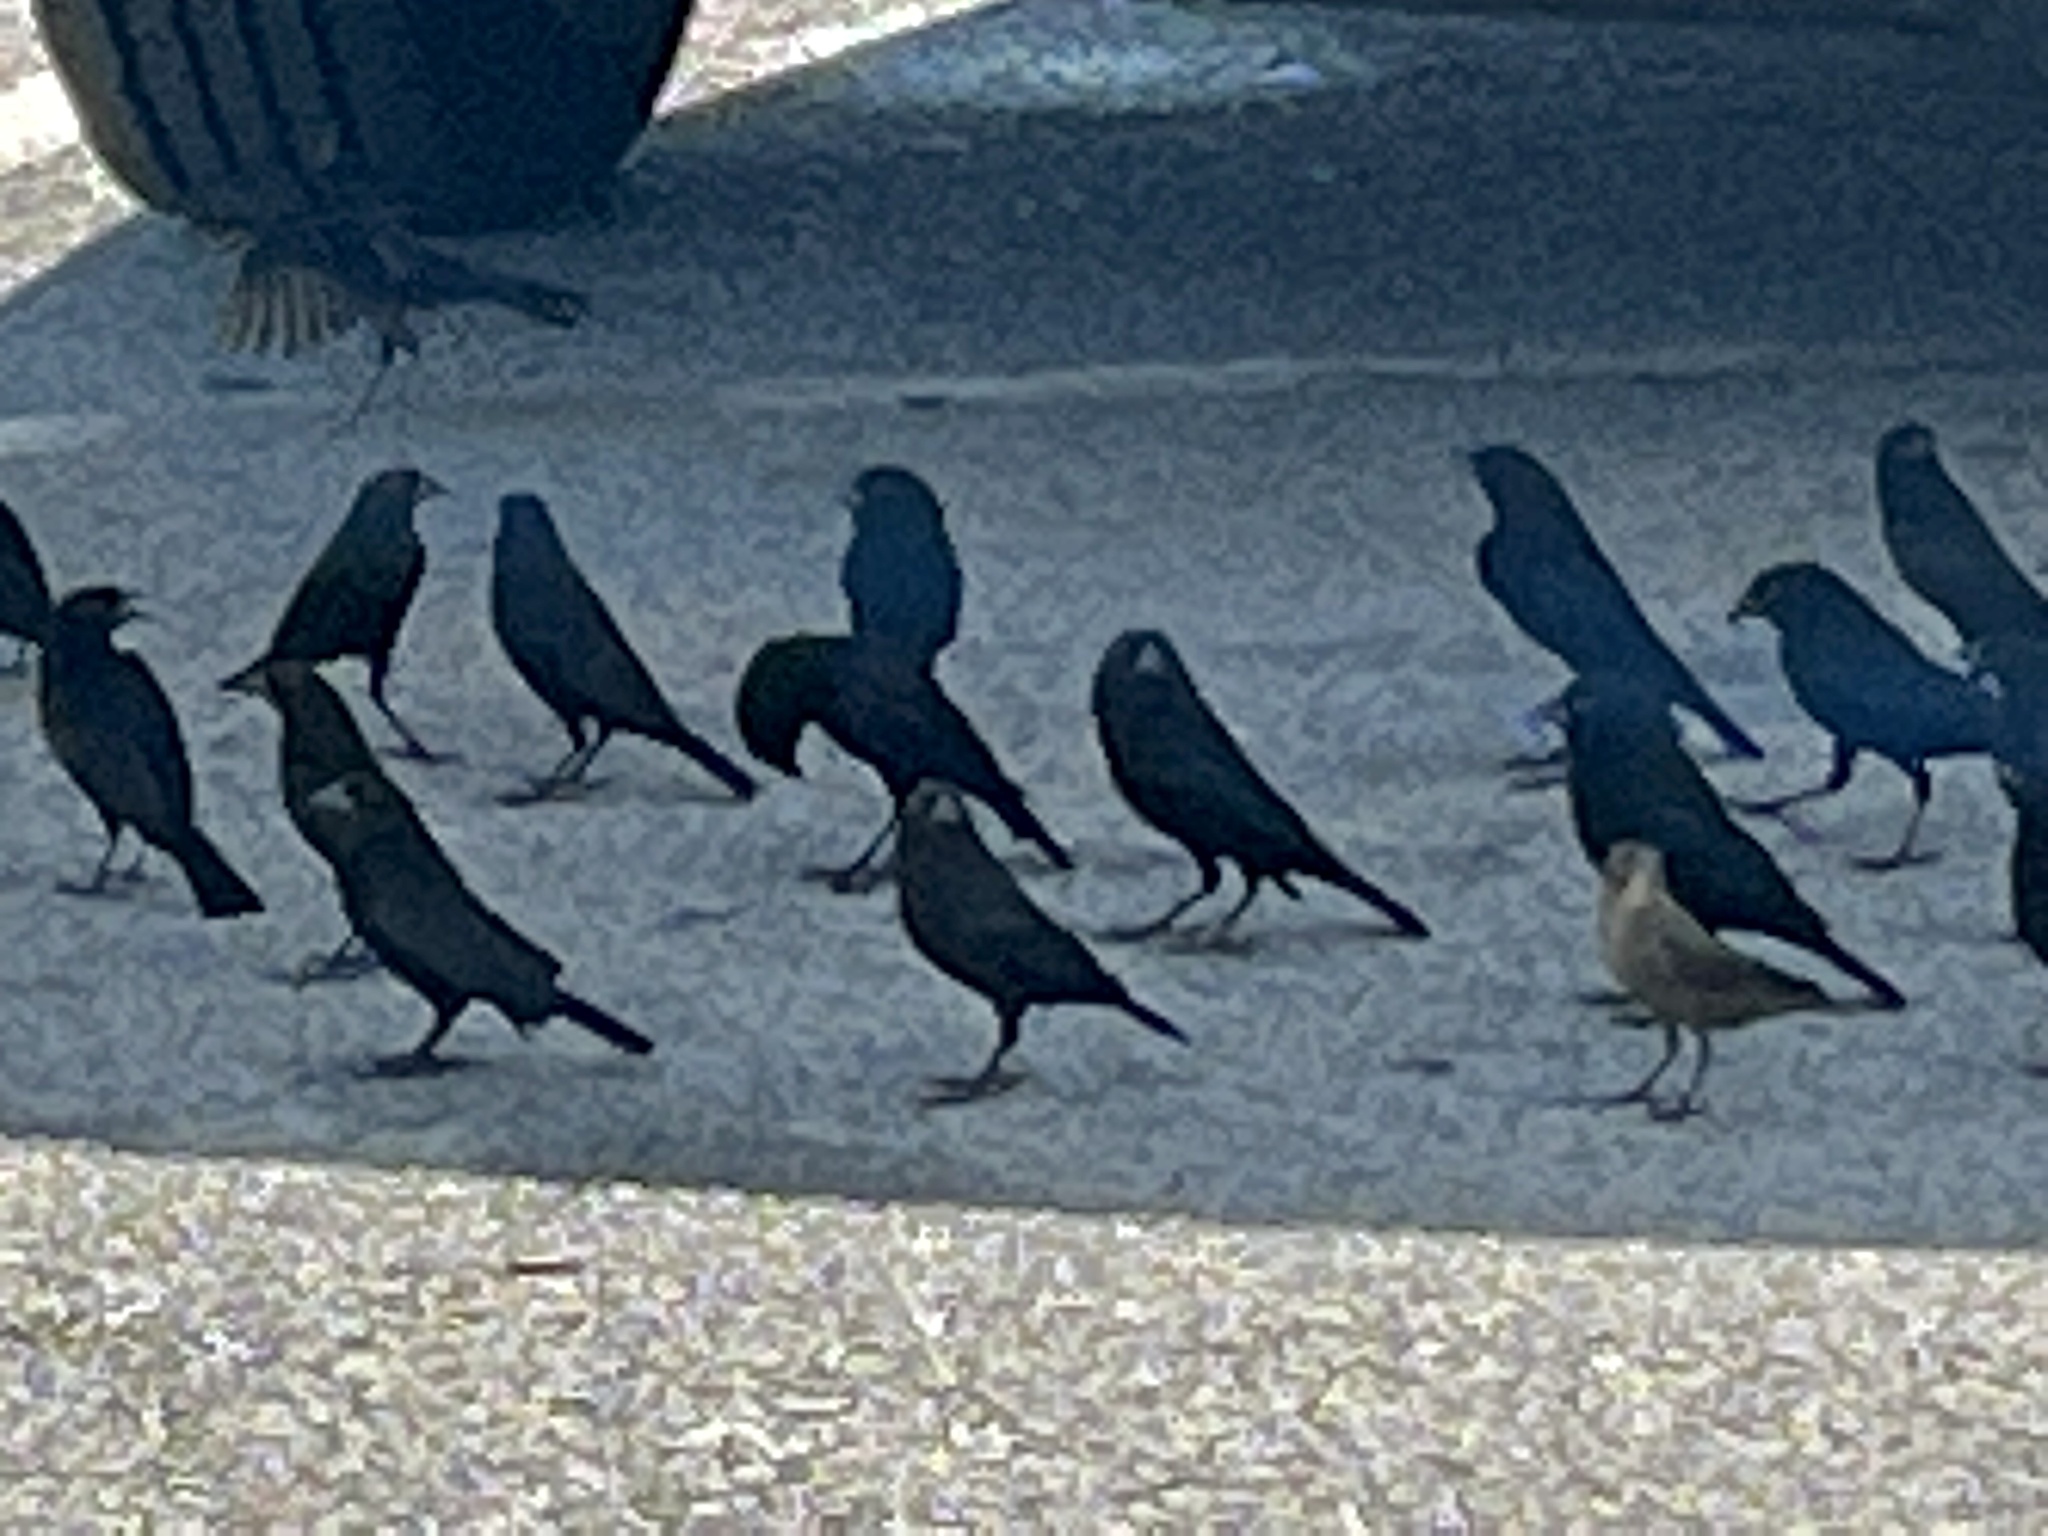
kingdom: Animalia
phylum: Chordata
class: Aves
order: Passeriformes
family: Icteridae
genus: Molothrus
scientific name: Molothrus aeneus
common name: Bronzed cowbird
